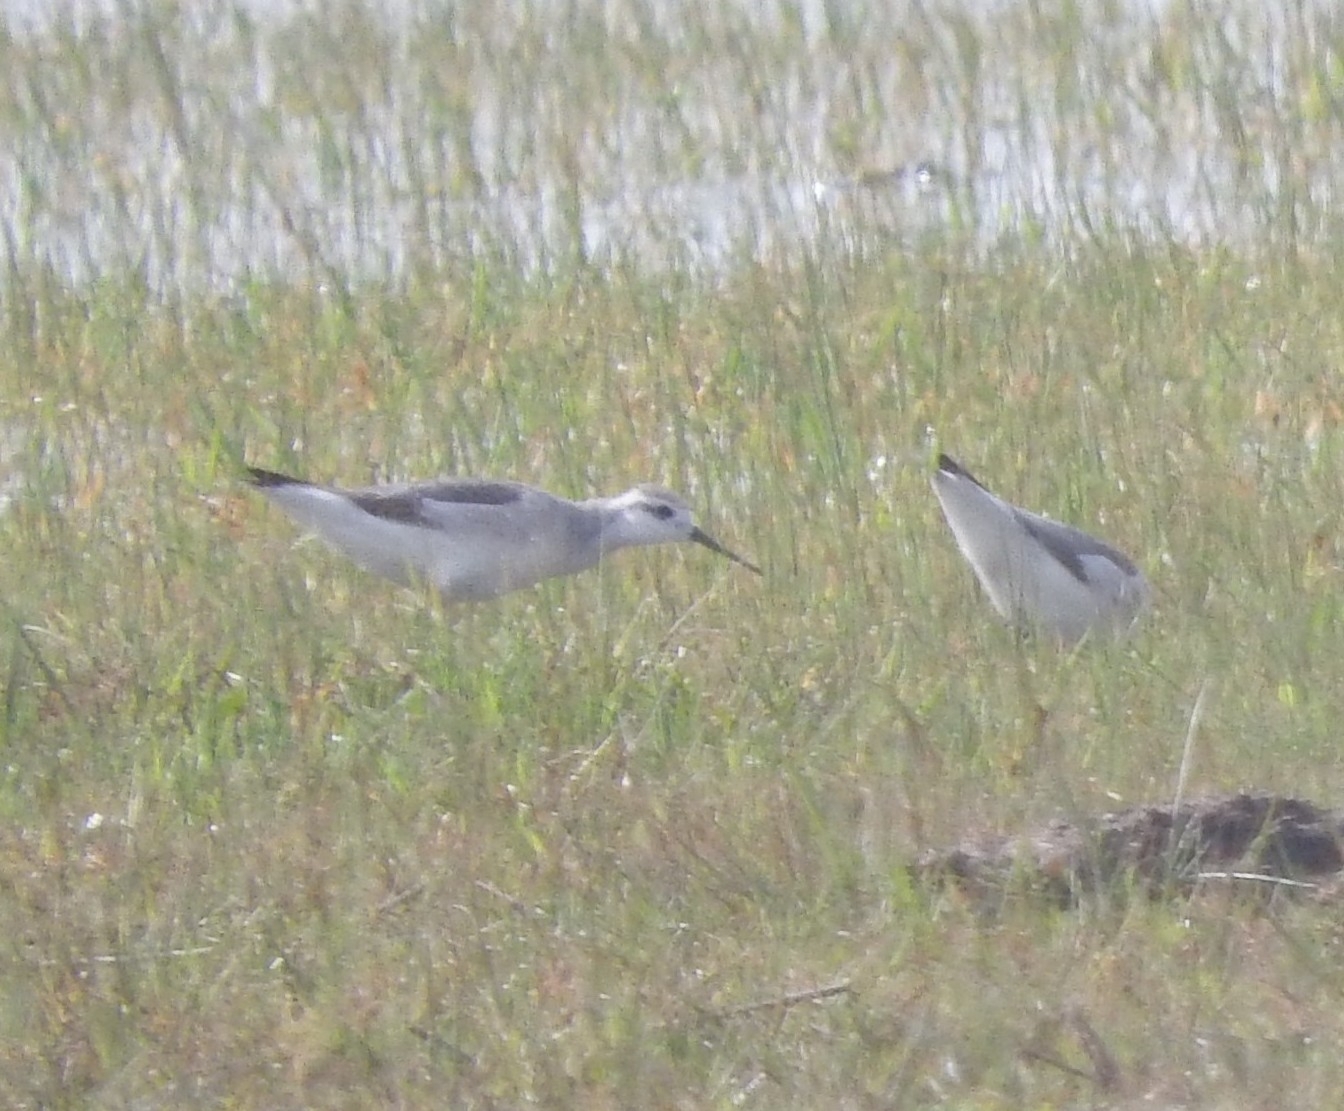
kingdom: Animalia
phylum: Chordata
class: Aves
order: Charadriiformes
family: Scolopacidae
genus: Phalaropus
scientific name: Phalaropus tricolor
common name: Wilson's phalarope
